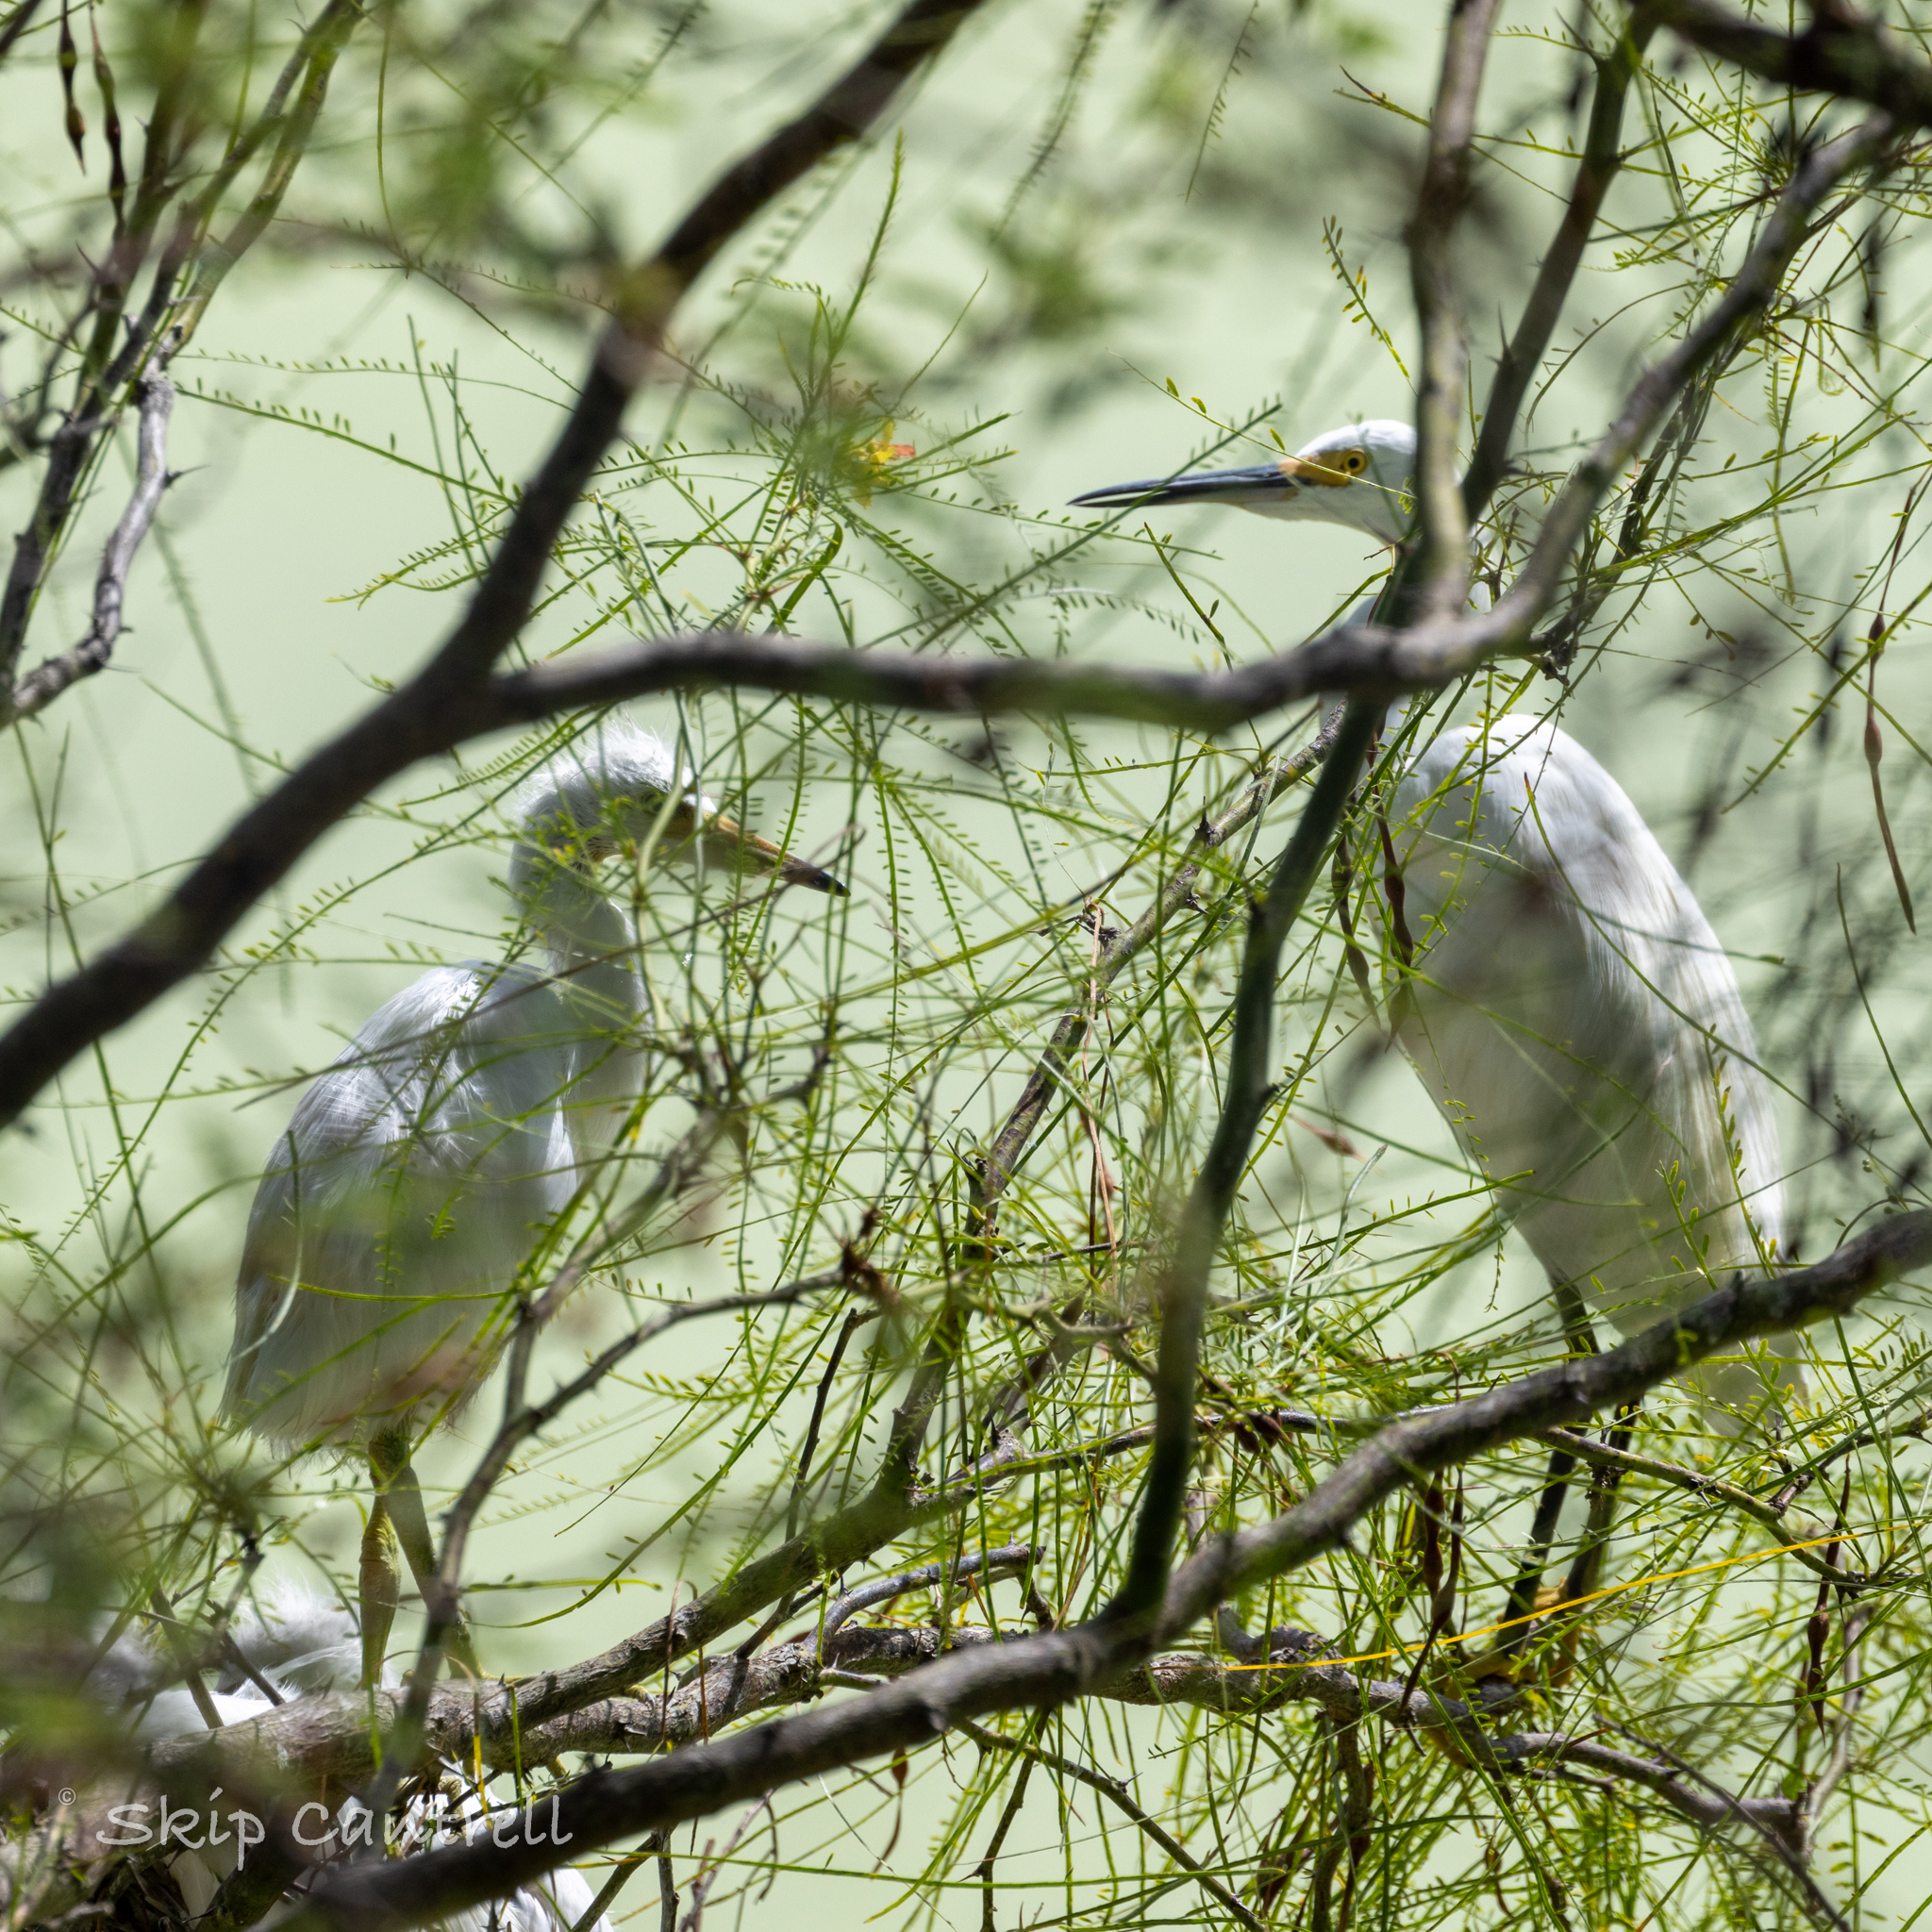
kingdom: Animalia
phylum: Chordata
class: Aves
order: Pelecaniformes
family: Ardeidae
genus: Egretta
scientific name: Egretta thula
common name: Snowy egret
